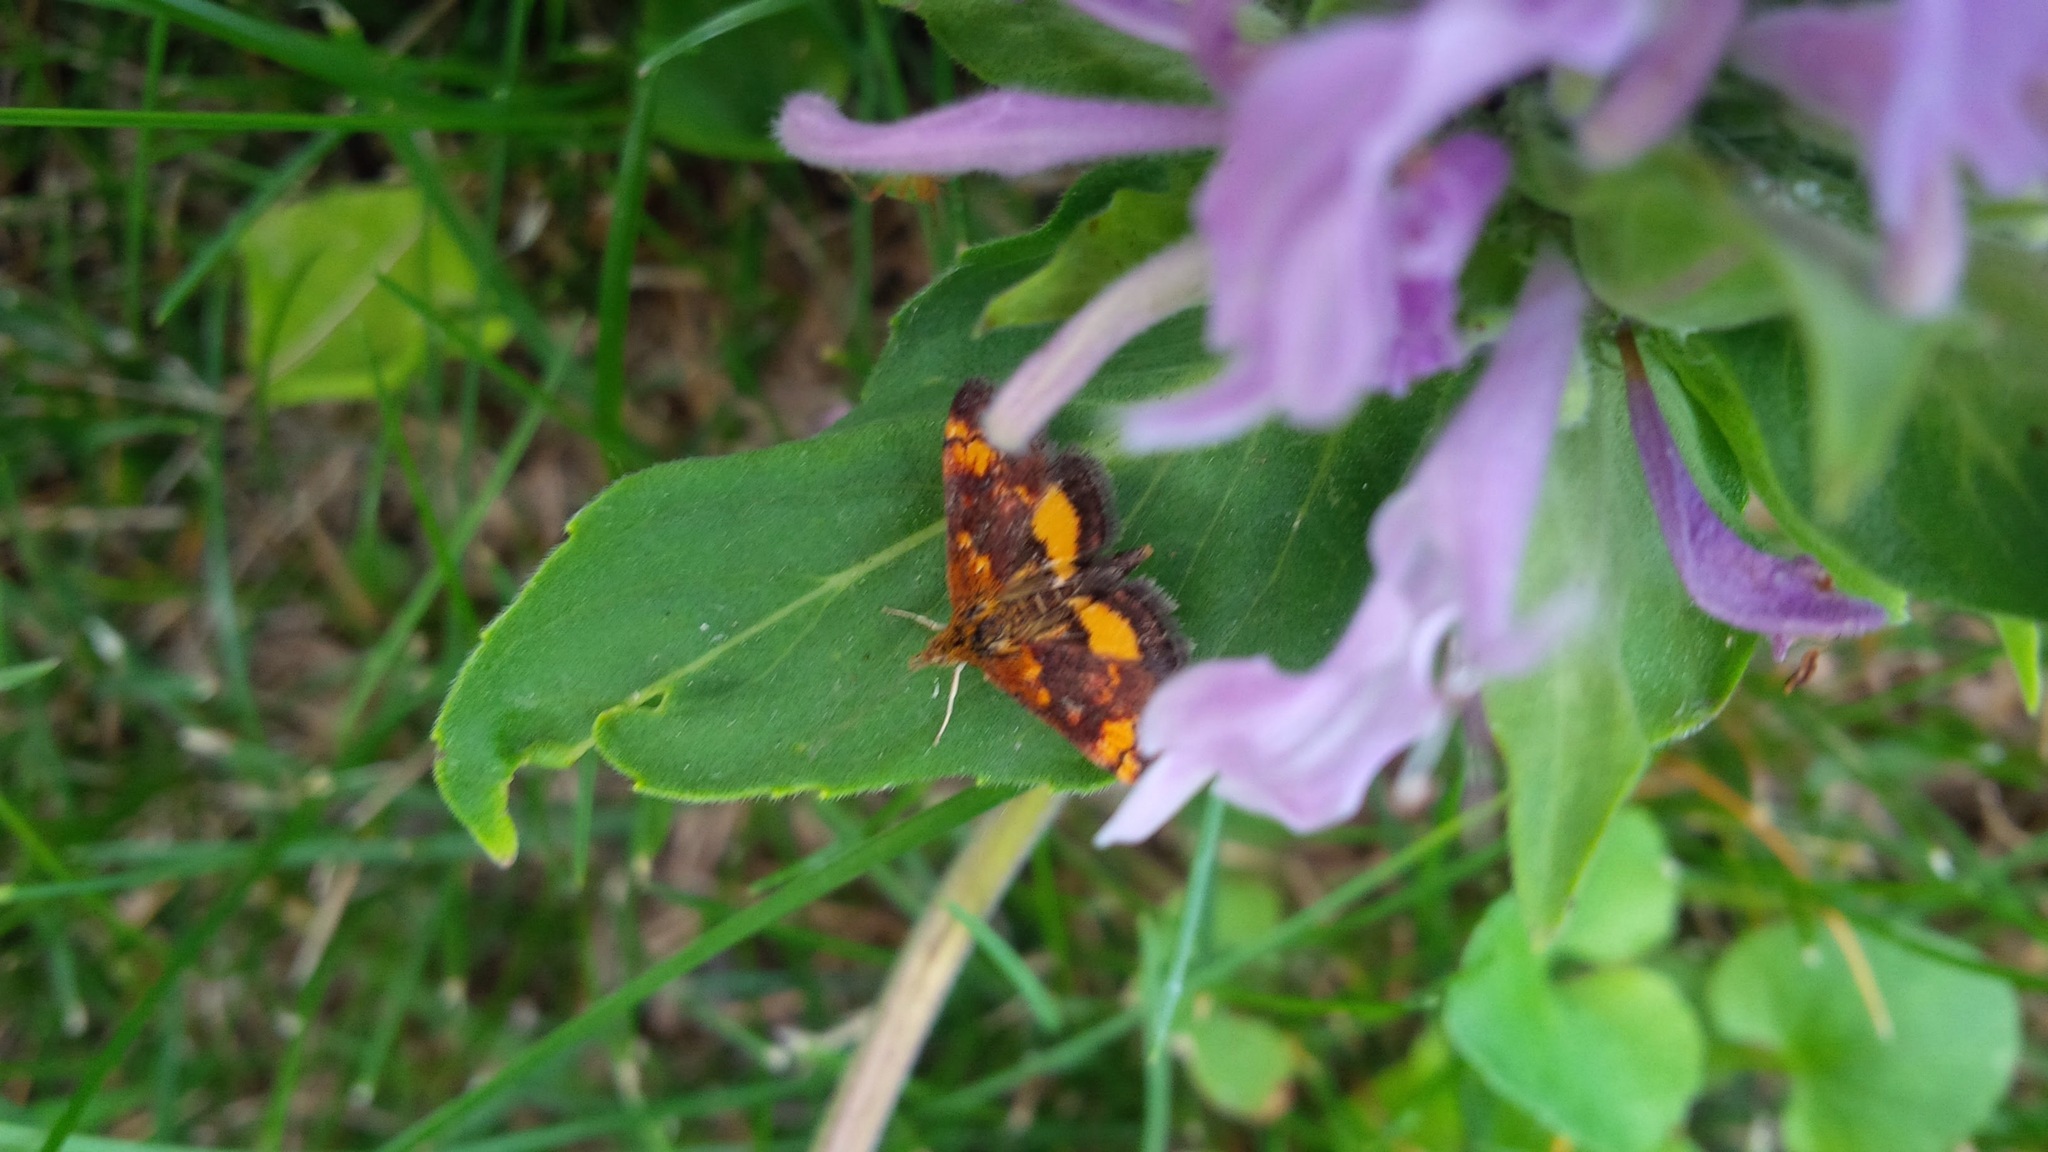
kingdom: Animalia
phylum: Arthropoda
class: Insecta
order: Lepidoptera
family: Crambidae
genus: Pyrausta
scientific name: Pyrausta orphisalis
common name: Orange mint moth
